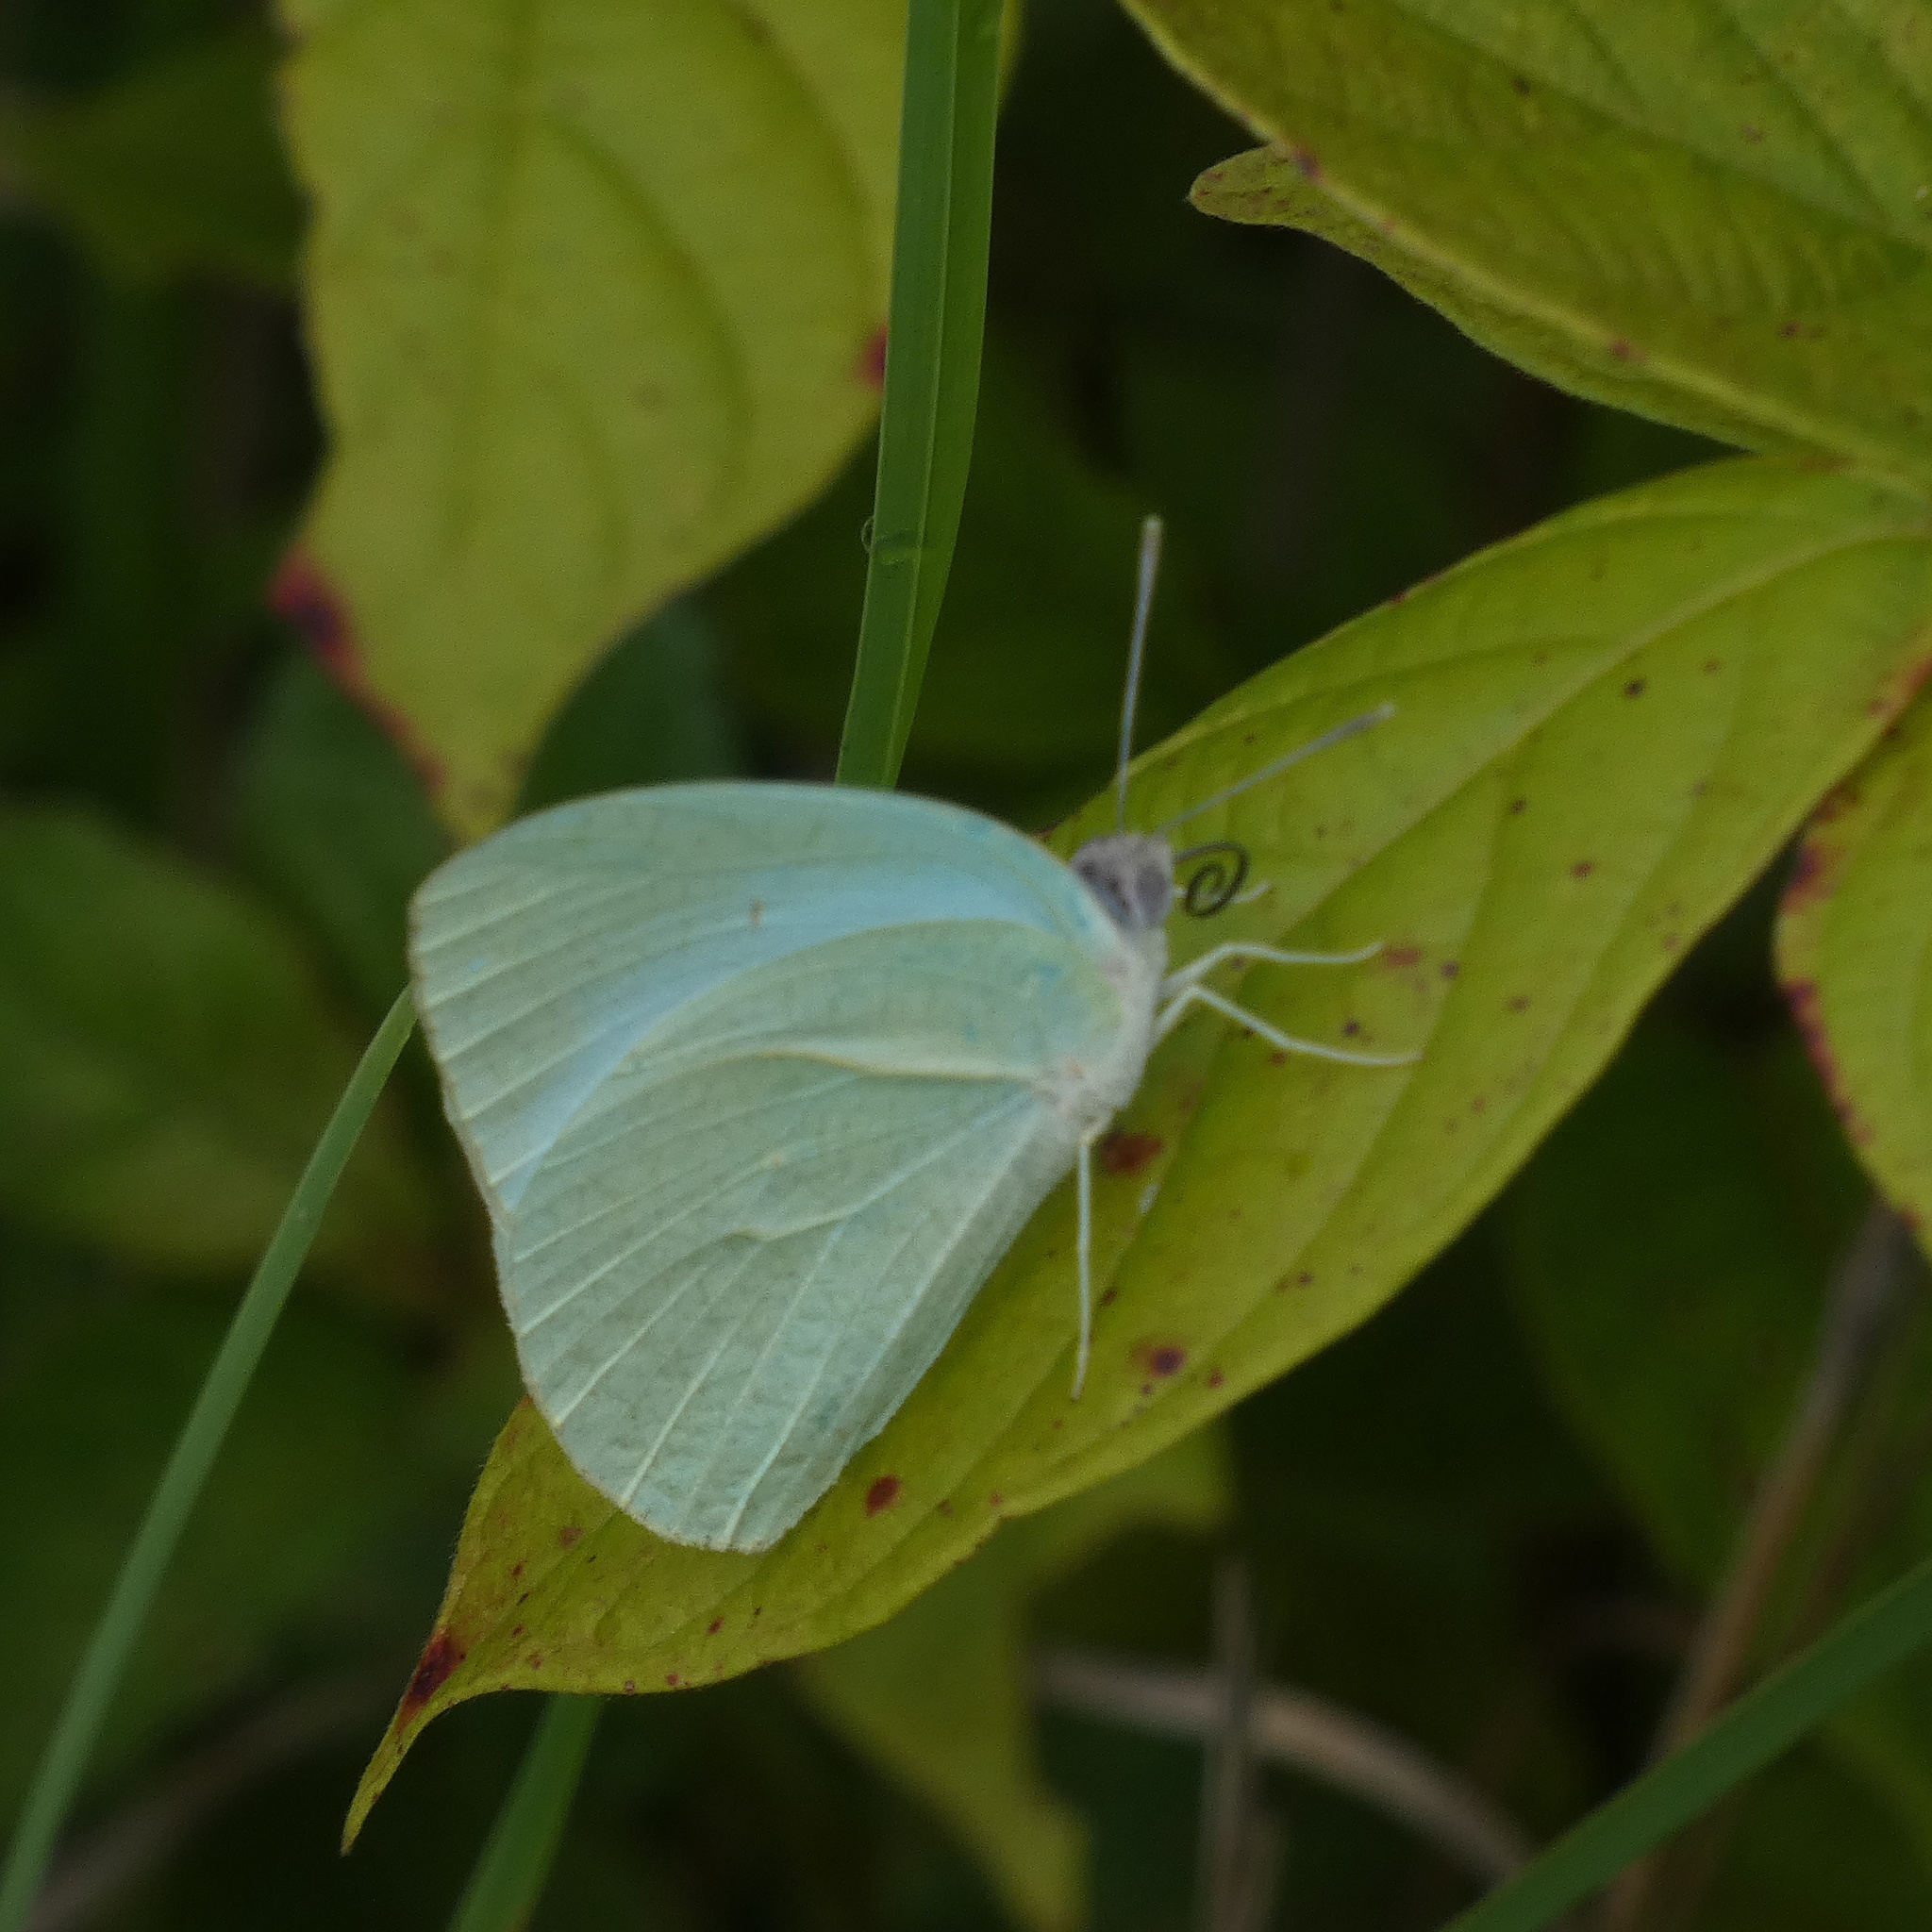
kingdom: Animalia
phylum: Arthropoda
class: Insecta
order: Lepidoptera
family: Pieridae
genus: Catopsilia
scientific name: Catopsilia florella
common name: African migrant
